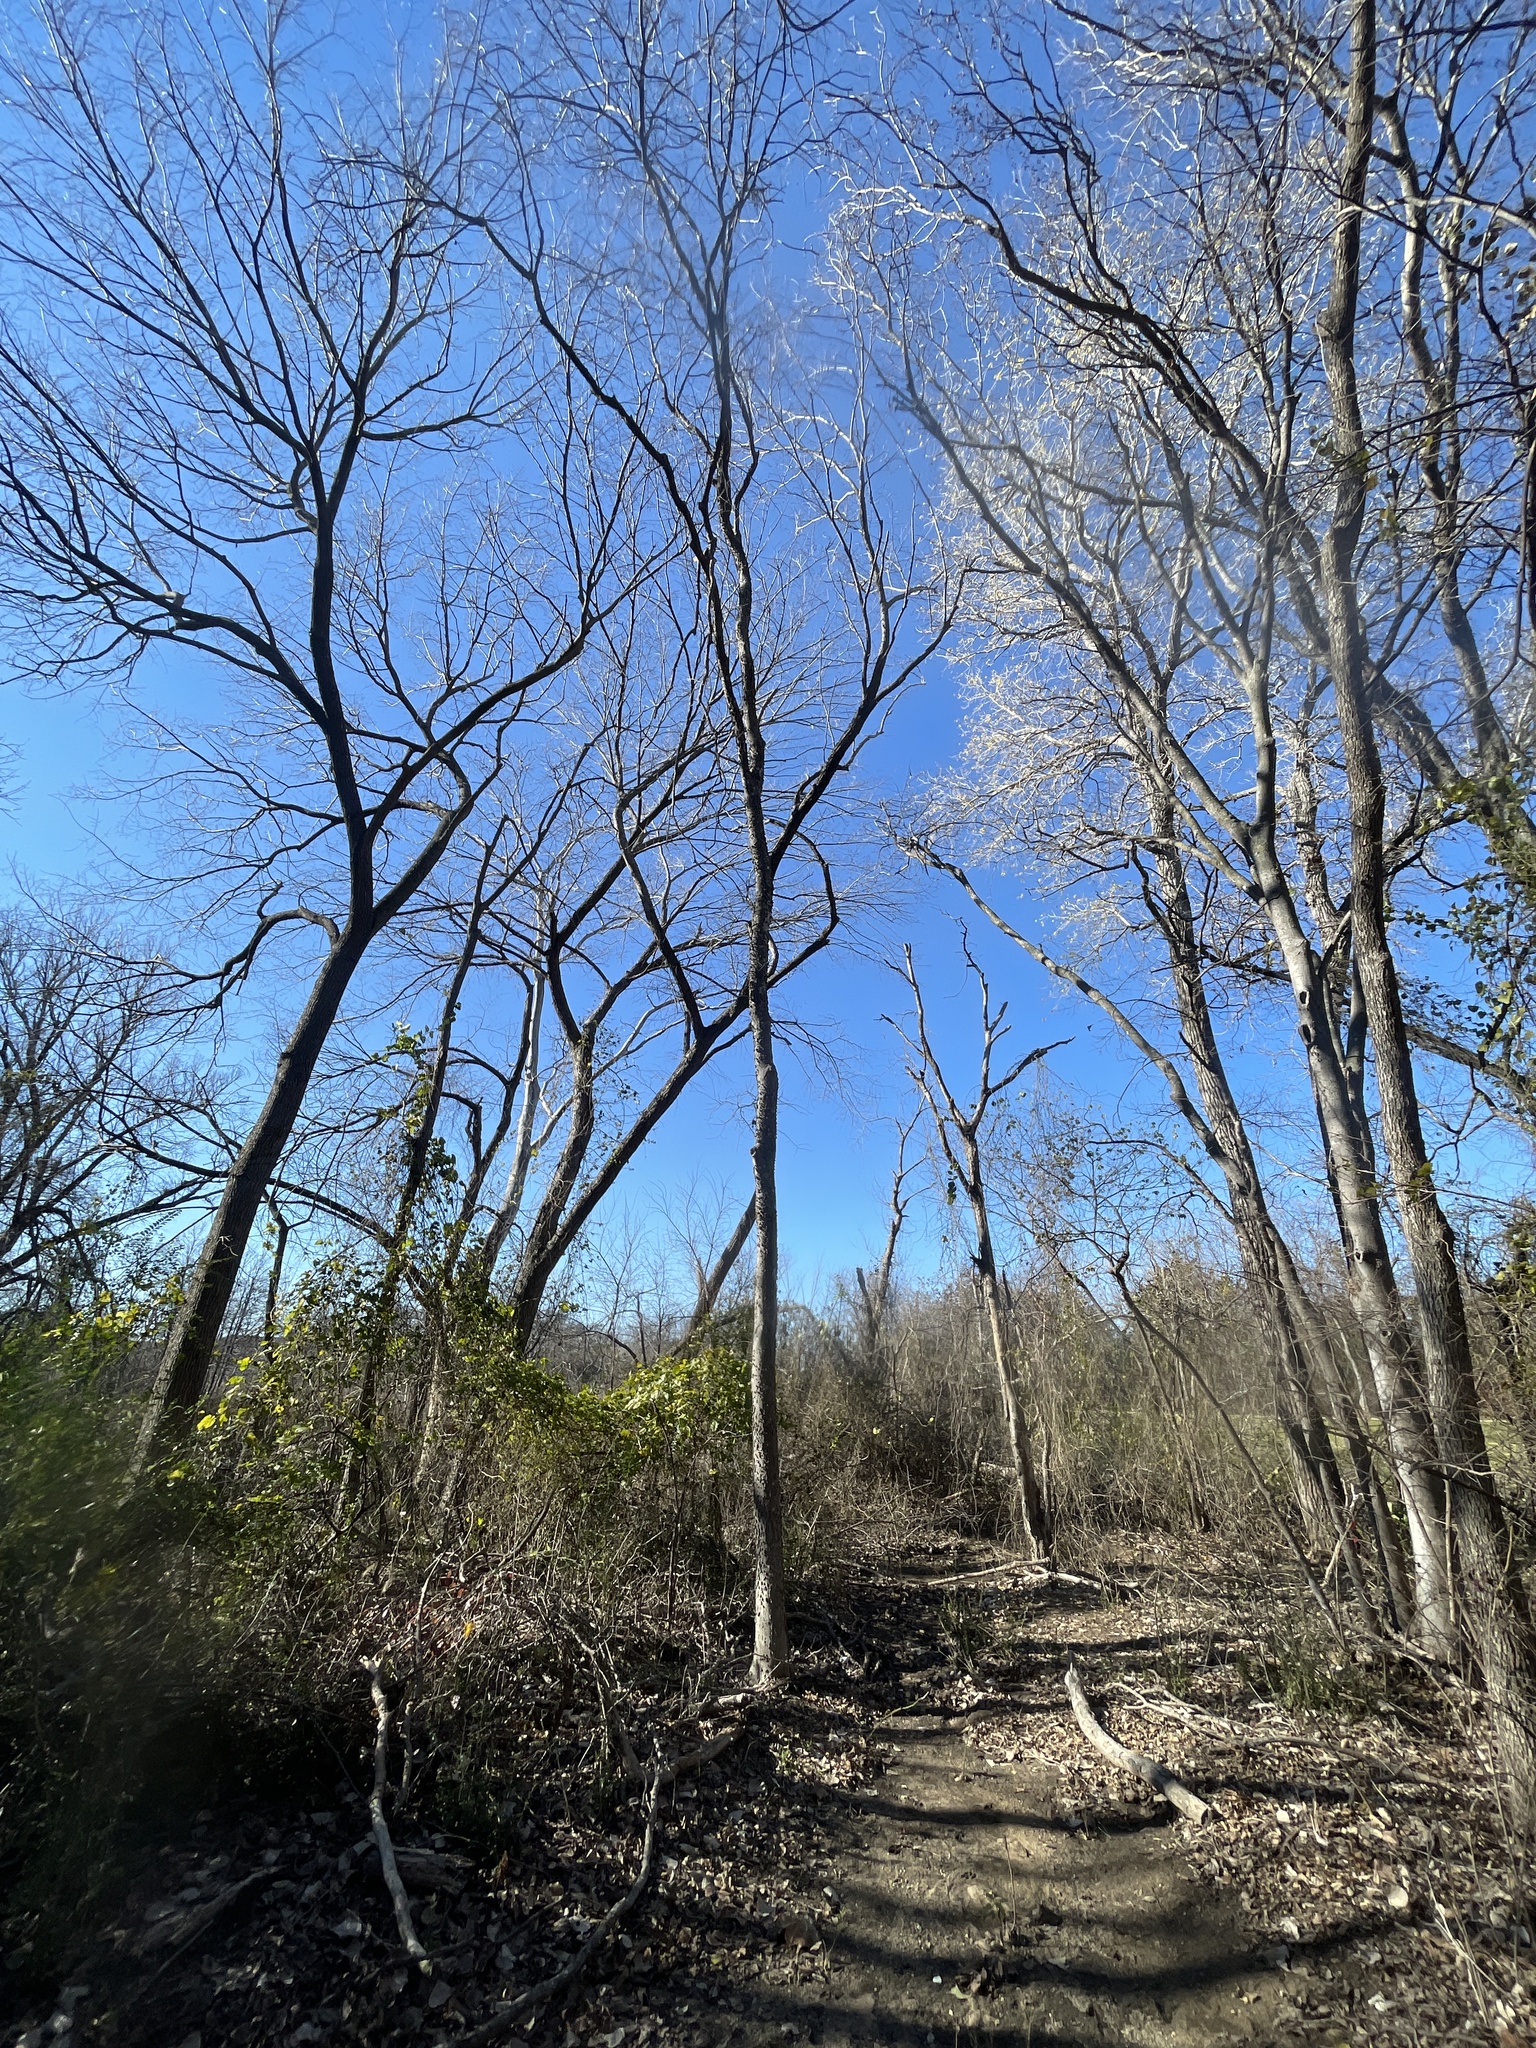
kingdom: Plantae
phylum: Tracheophyta
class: Magnoliopsida
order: Rosales
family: Cannabaceae
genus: Celtis
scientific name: Celtis laevigata
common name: Sugarberry
